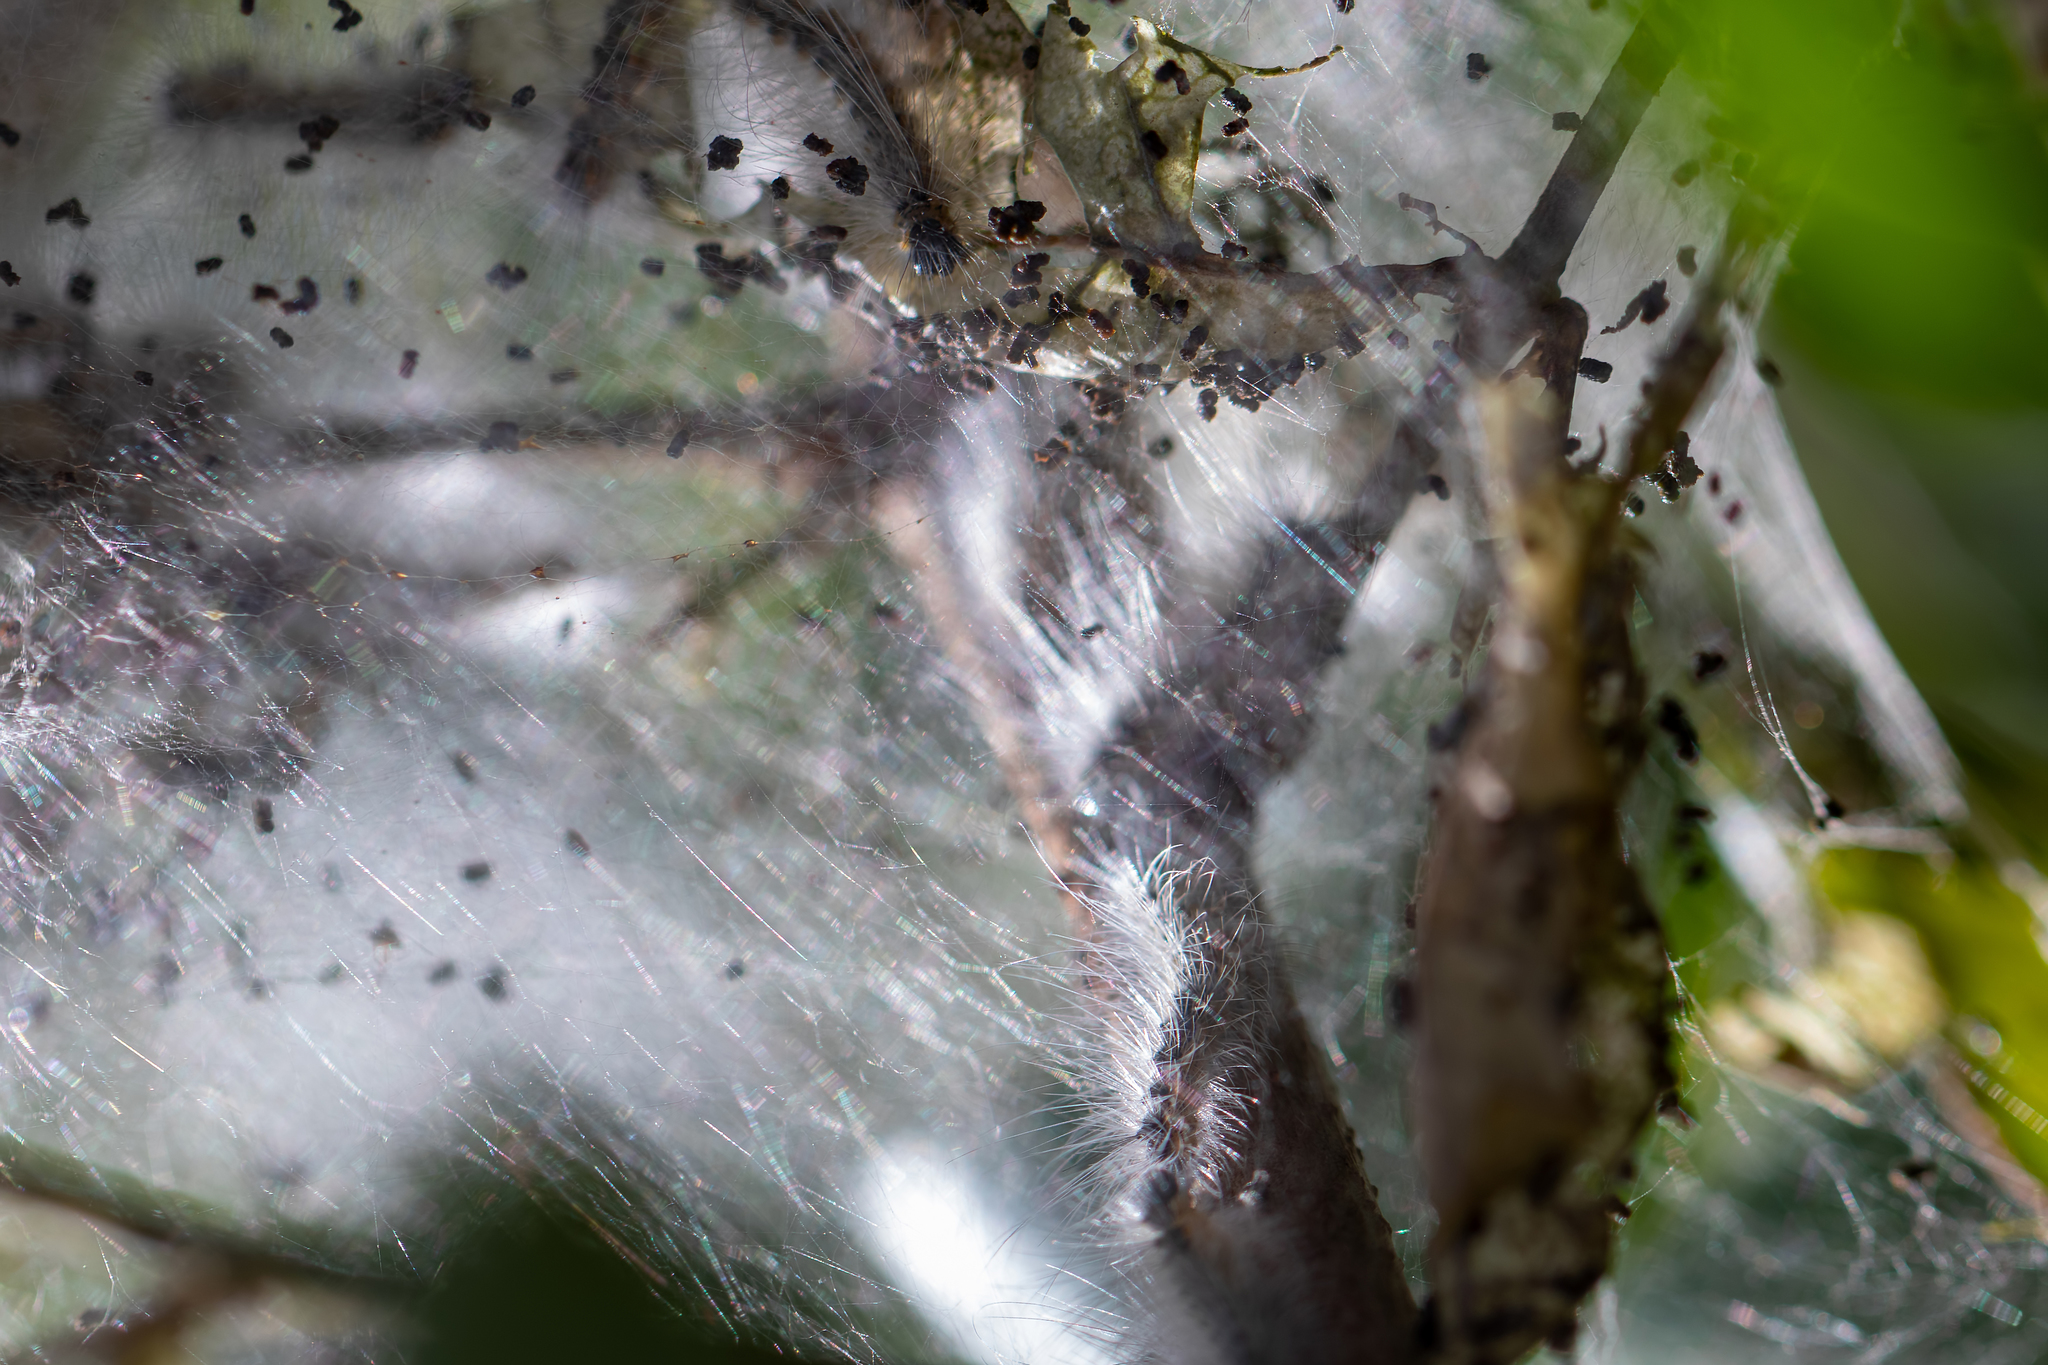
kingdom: Animalia
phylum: Arthropoda
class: Insecta
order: Lepidoptera
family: Erebidae
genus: Hyphantria
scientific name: Hyphantria cunea
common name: American white moth
